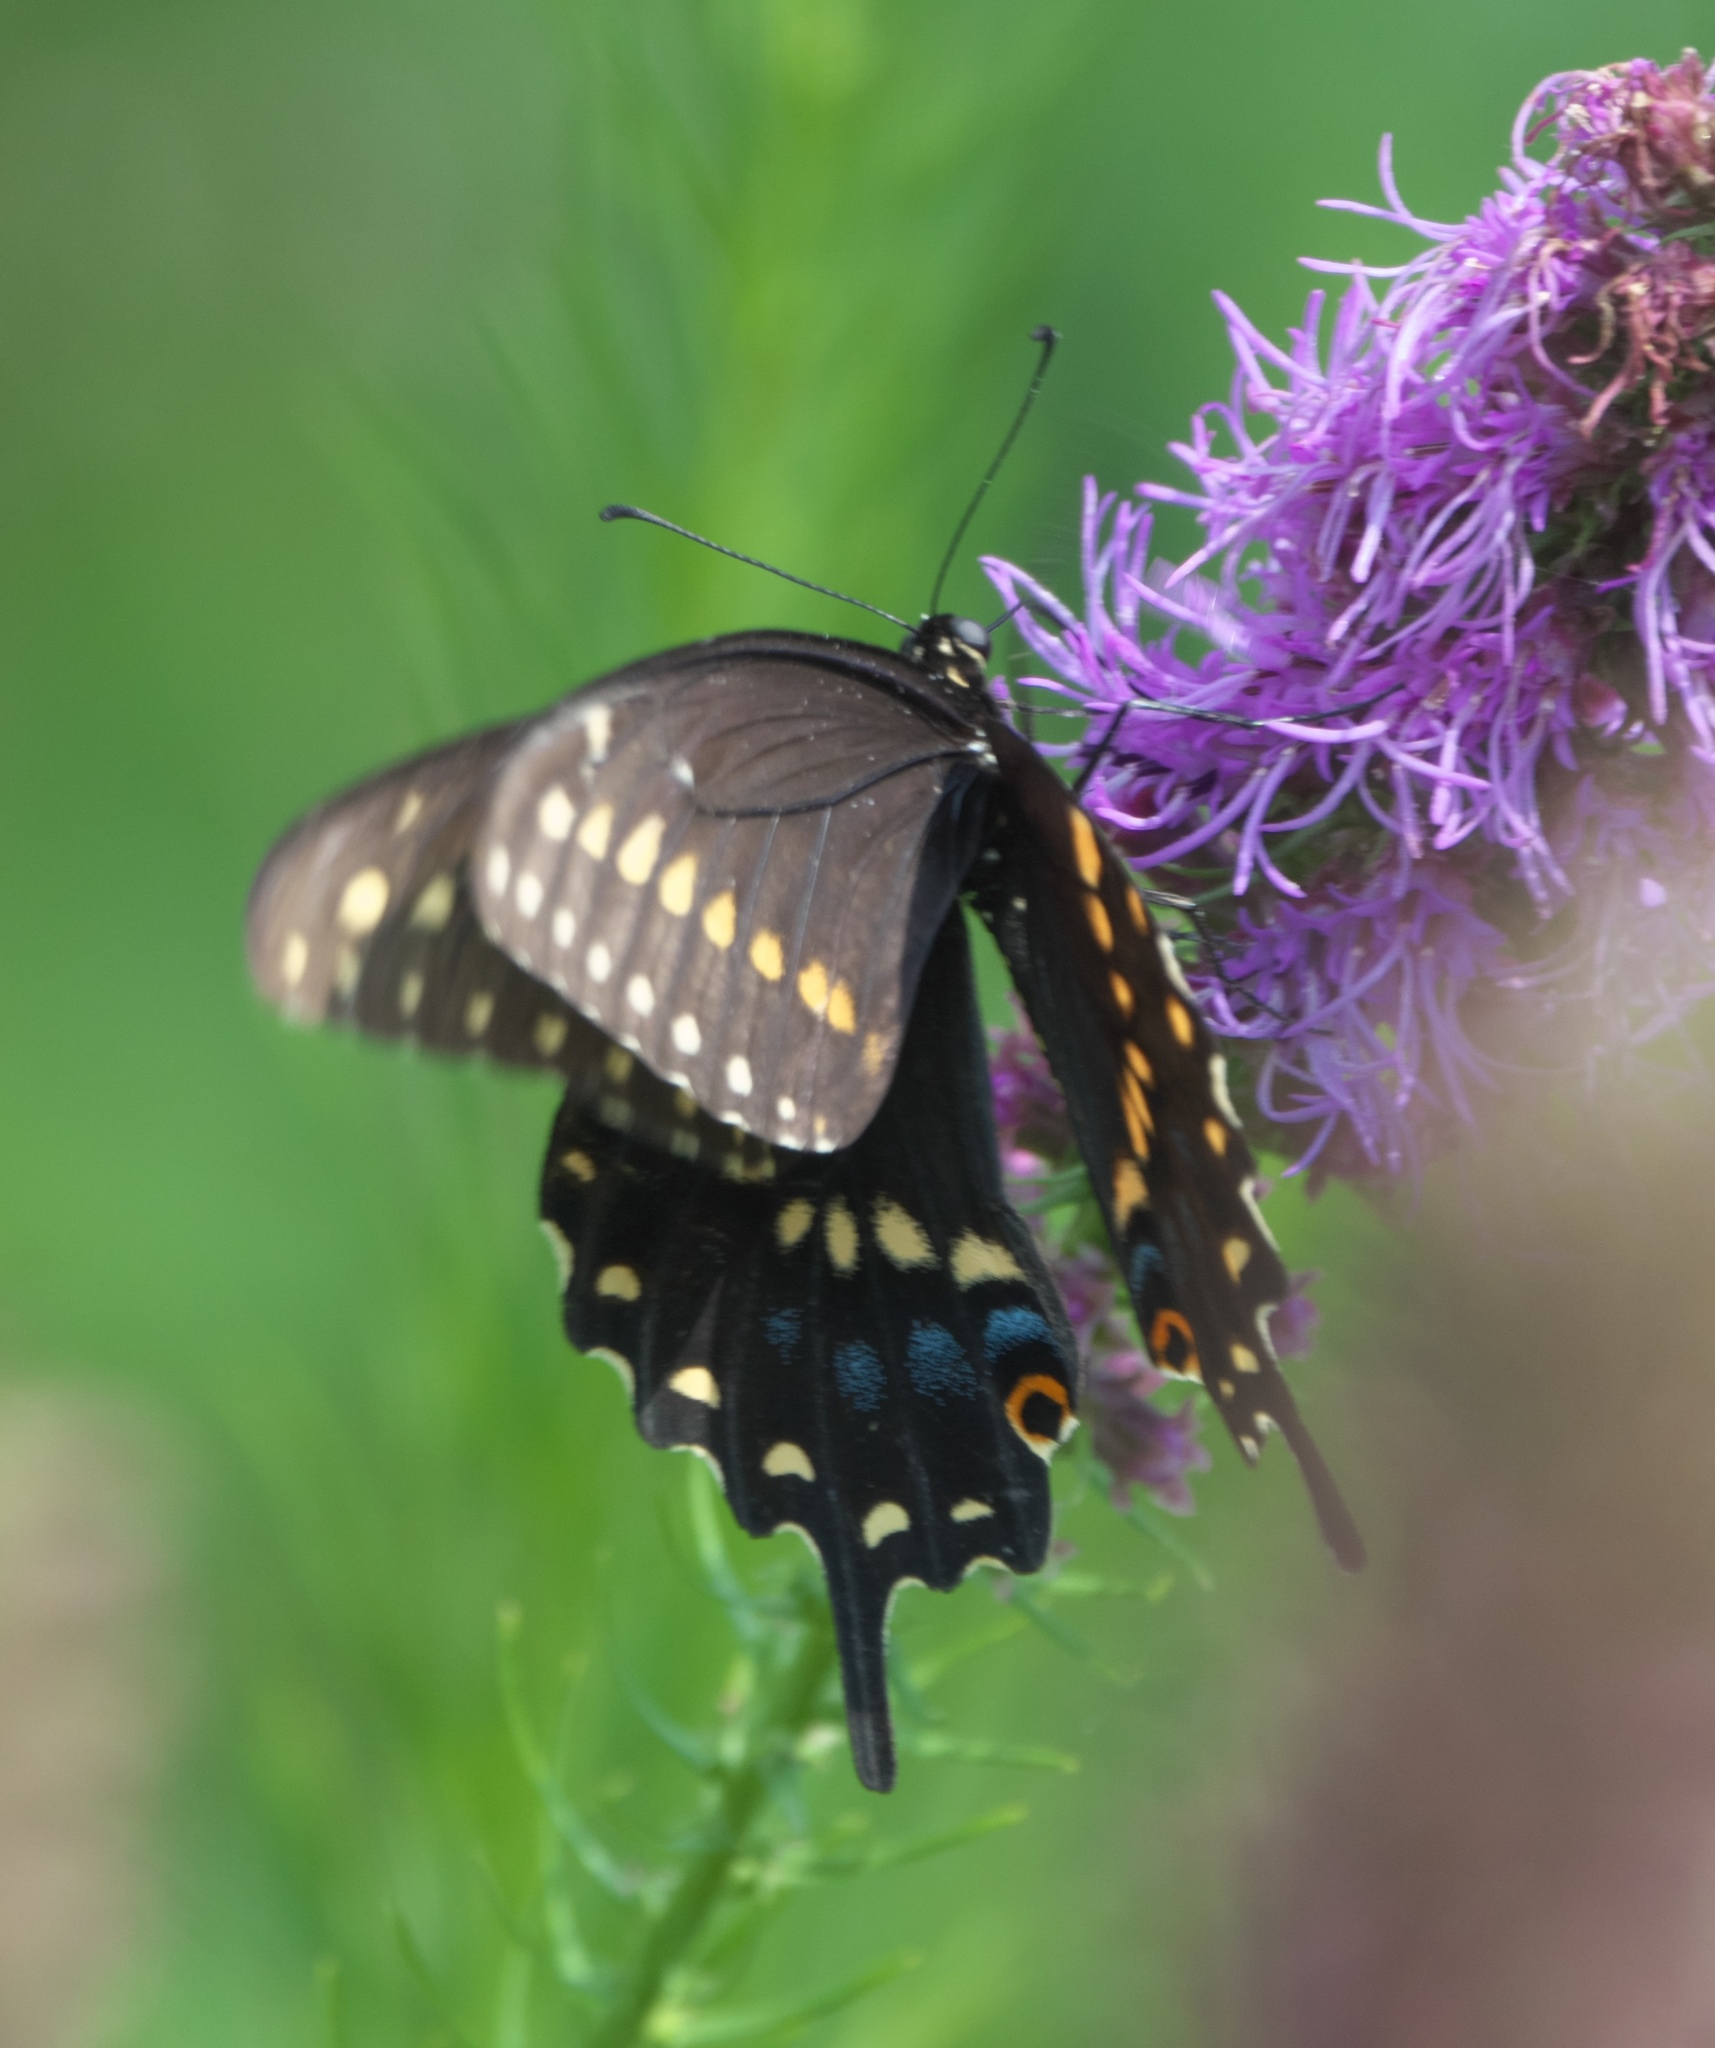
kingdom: Animalia
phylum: Arthropoda
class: Insecta
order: Lepidoptera
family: Papilionidae
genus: Papilio
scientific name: Papilio polyxenes
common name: Black swallowtail
